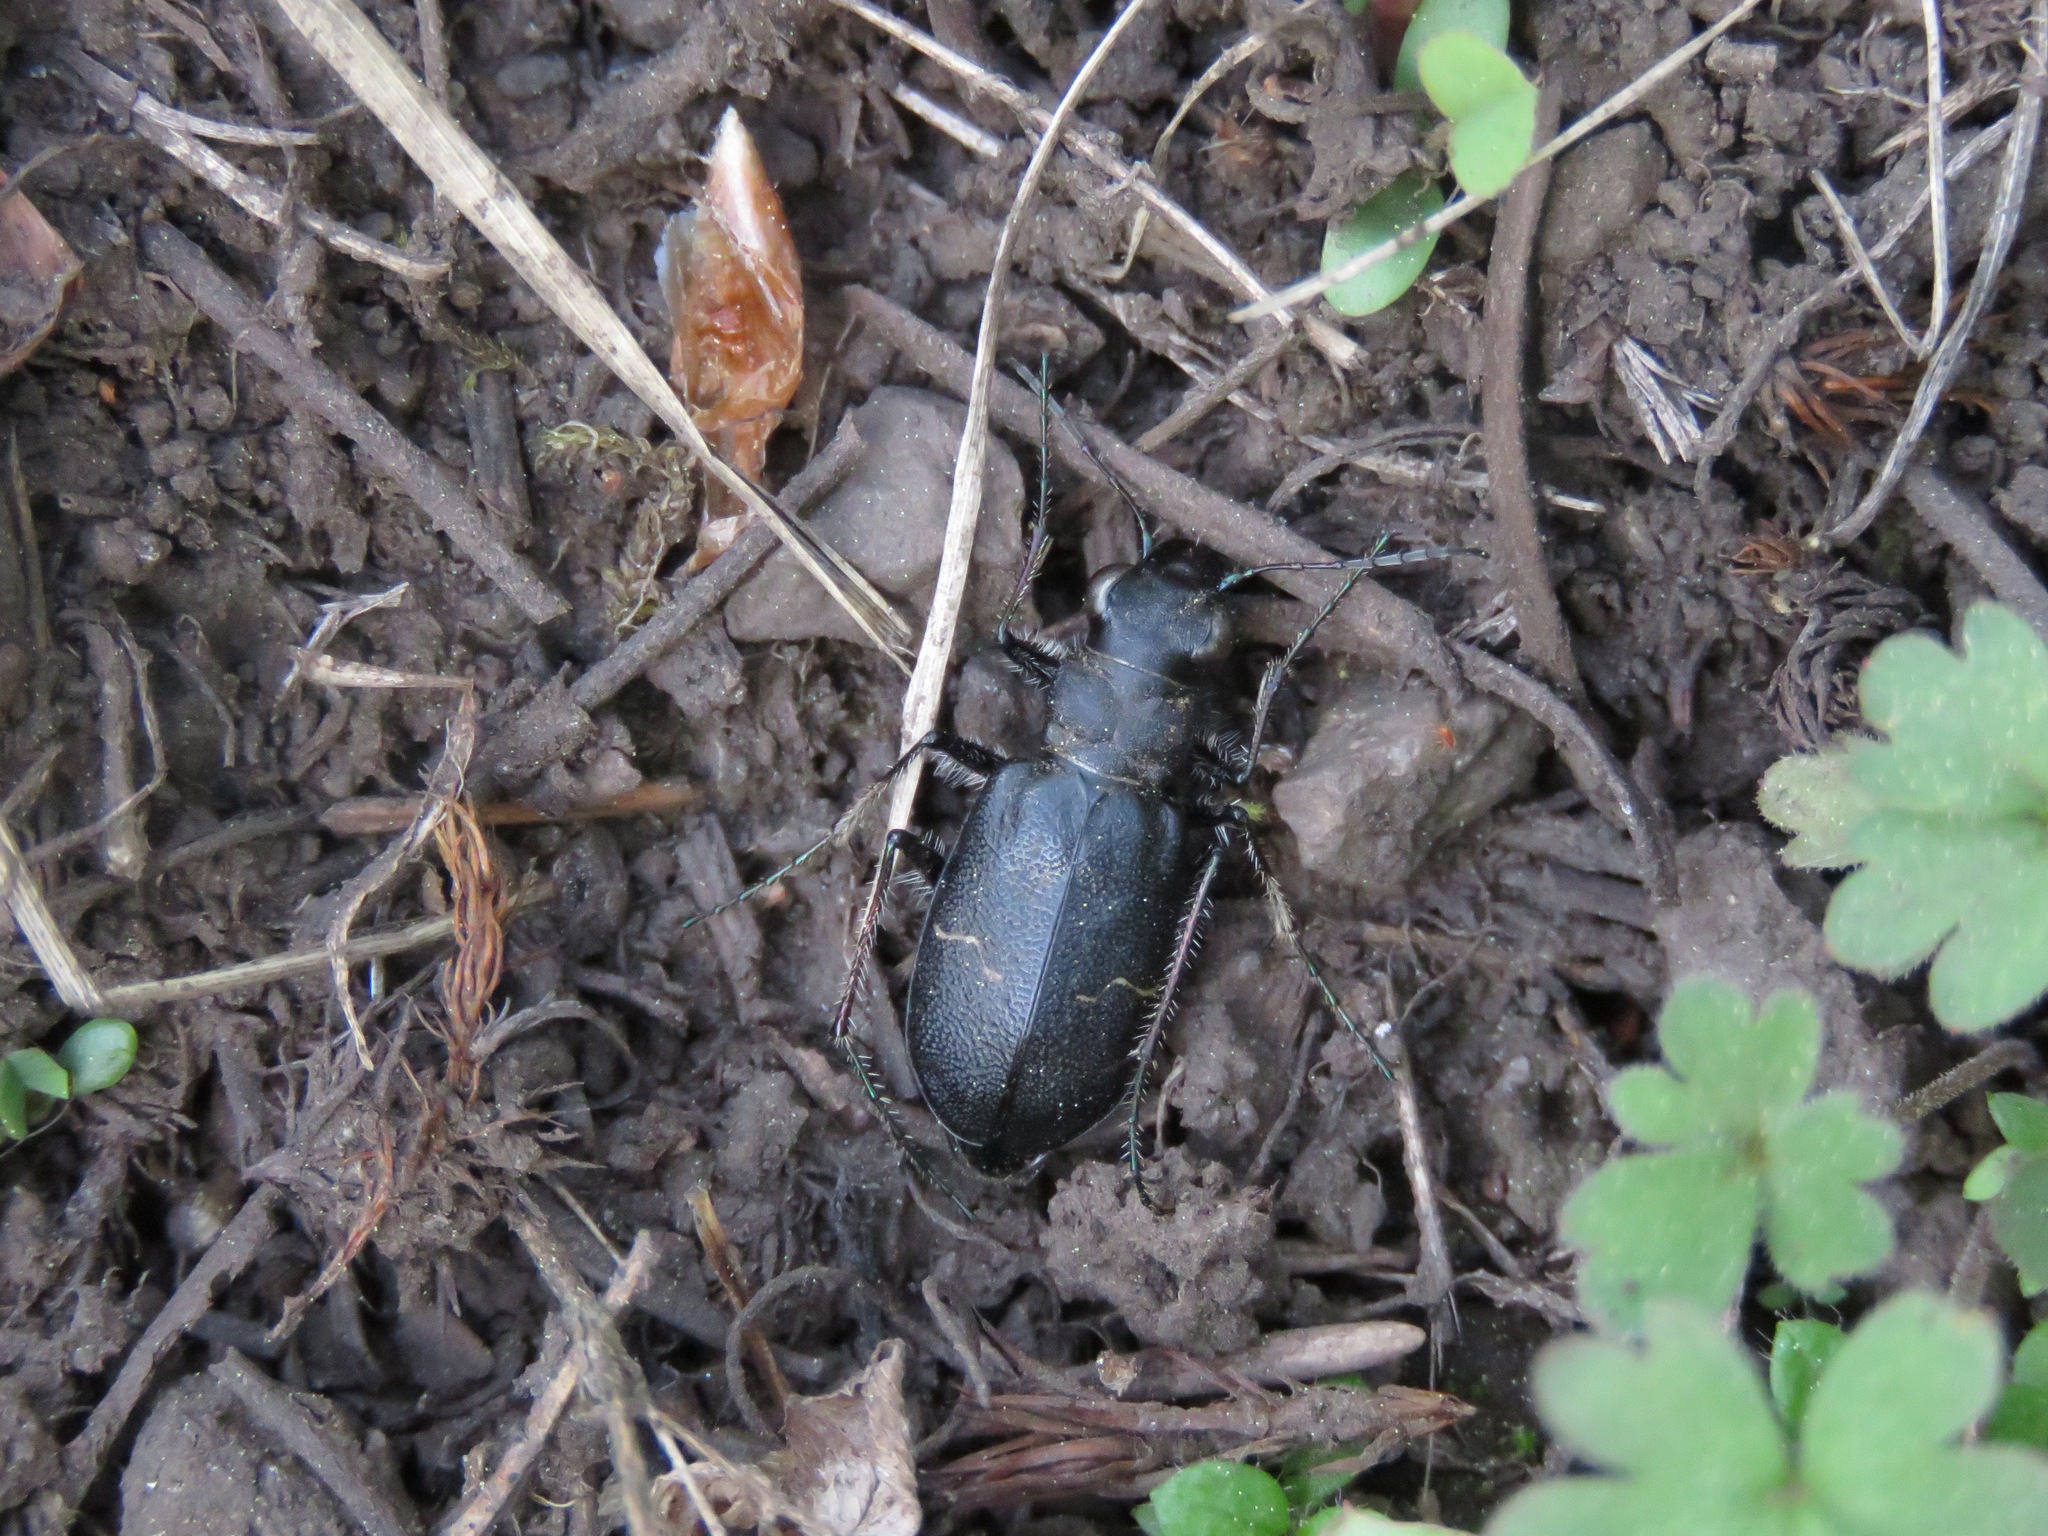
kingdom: Animalia
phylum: Arthropoda
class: Insecta
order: Coleoptera
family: Carabidae
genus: Cicindela
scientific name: Cicindela longilabris
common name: Boreal long-lipped tiger beetle
